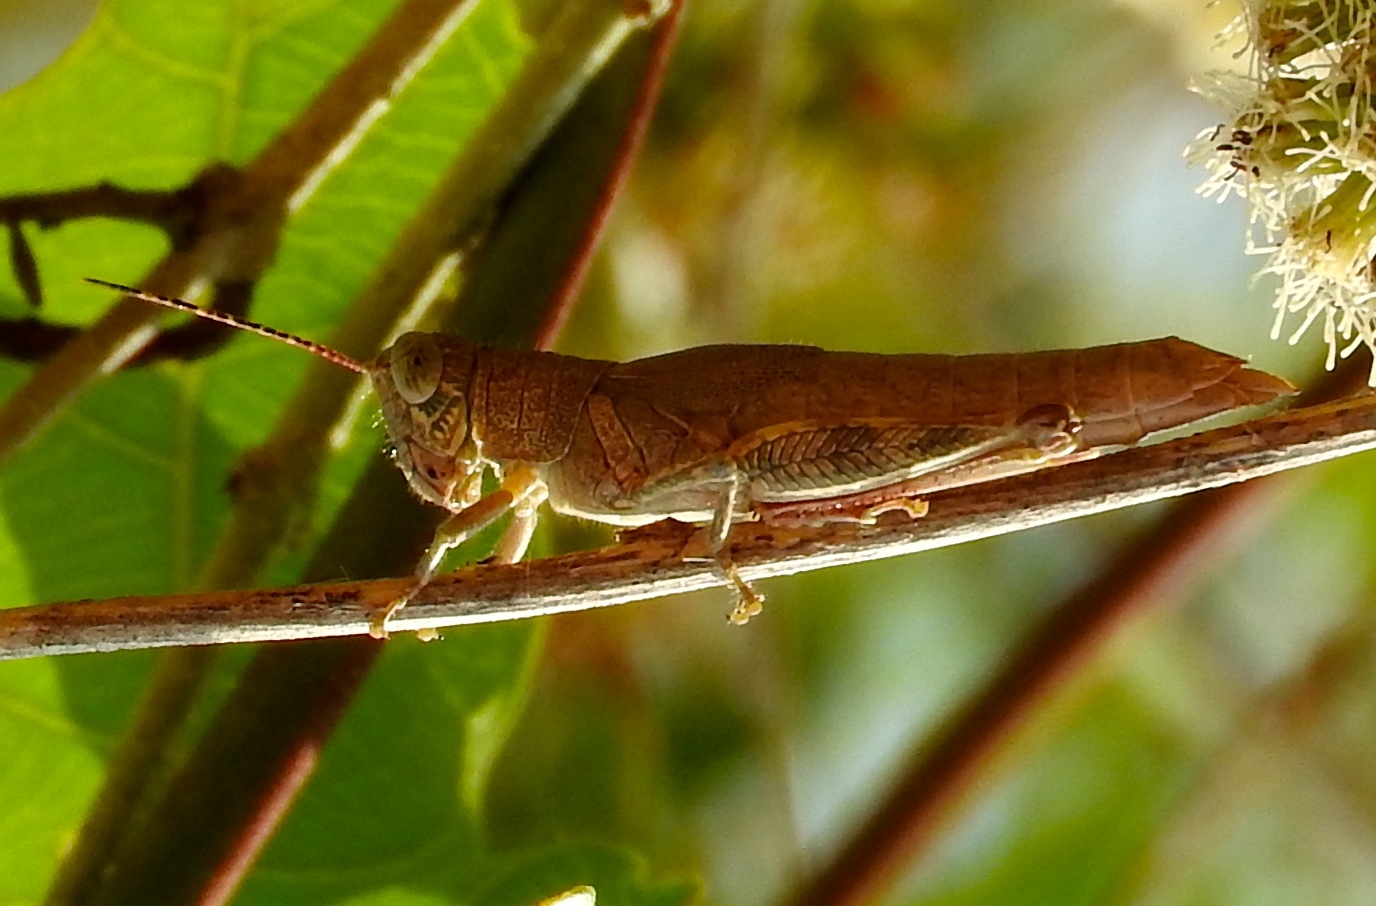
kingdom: Animalia
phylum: Arthropoda
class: Insecta
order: Orthoptera
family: Acrididae
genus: Proctolabus
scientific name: Proctolabus cerciatus
